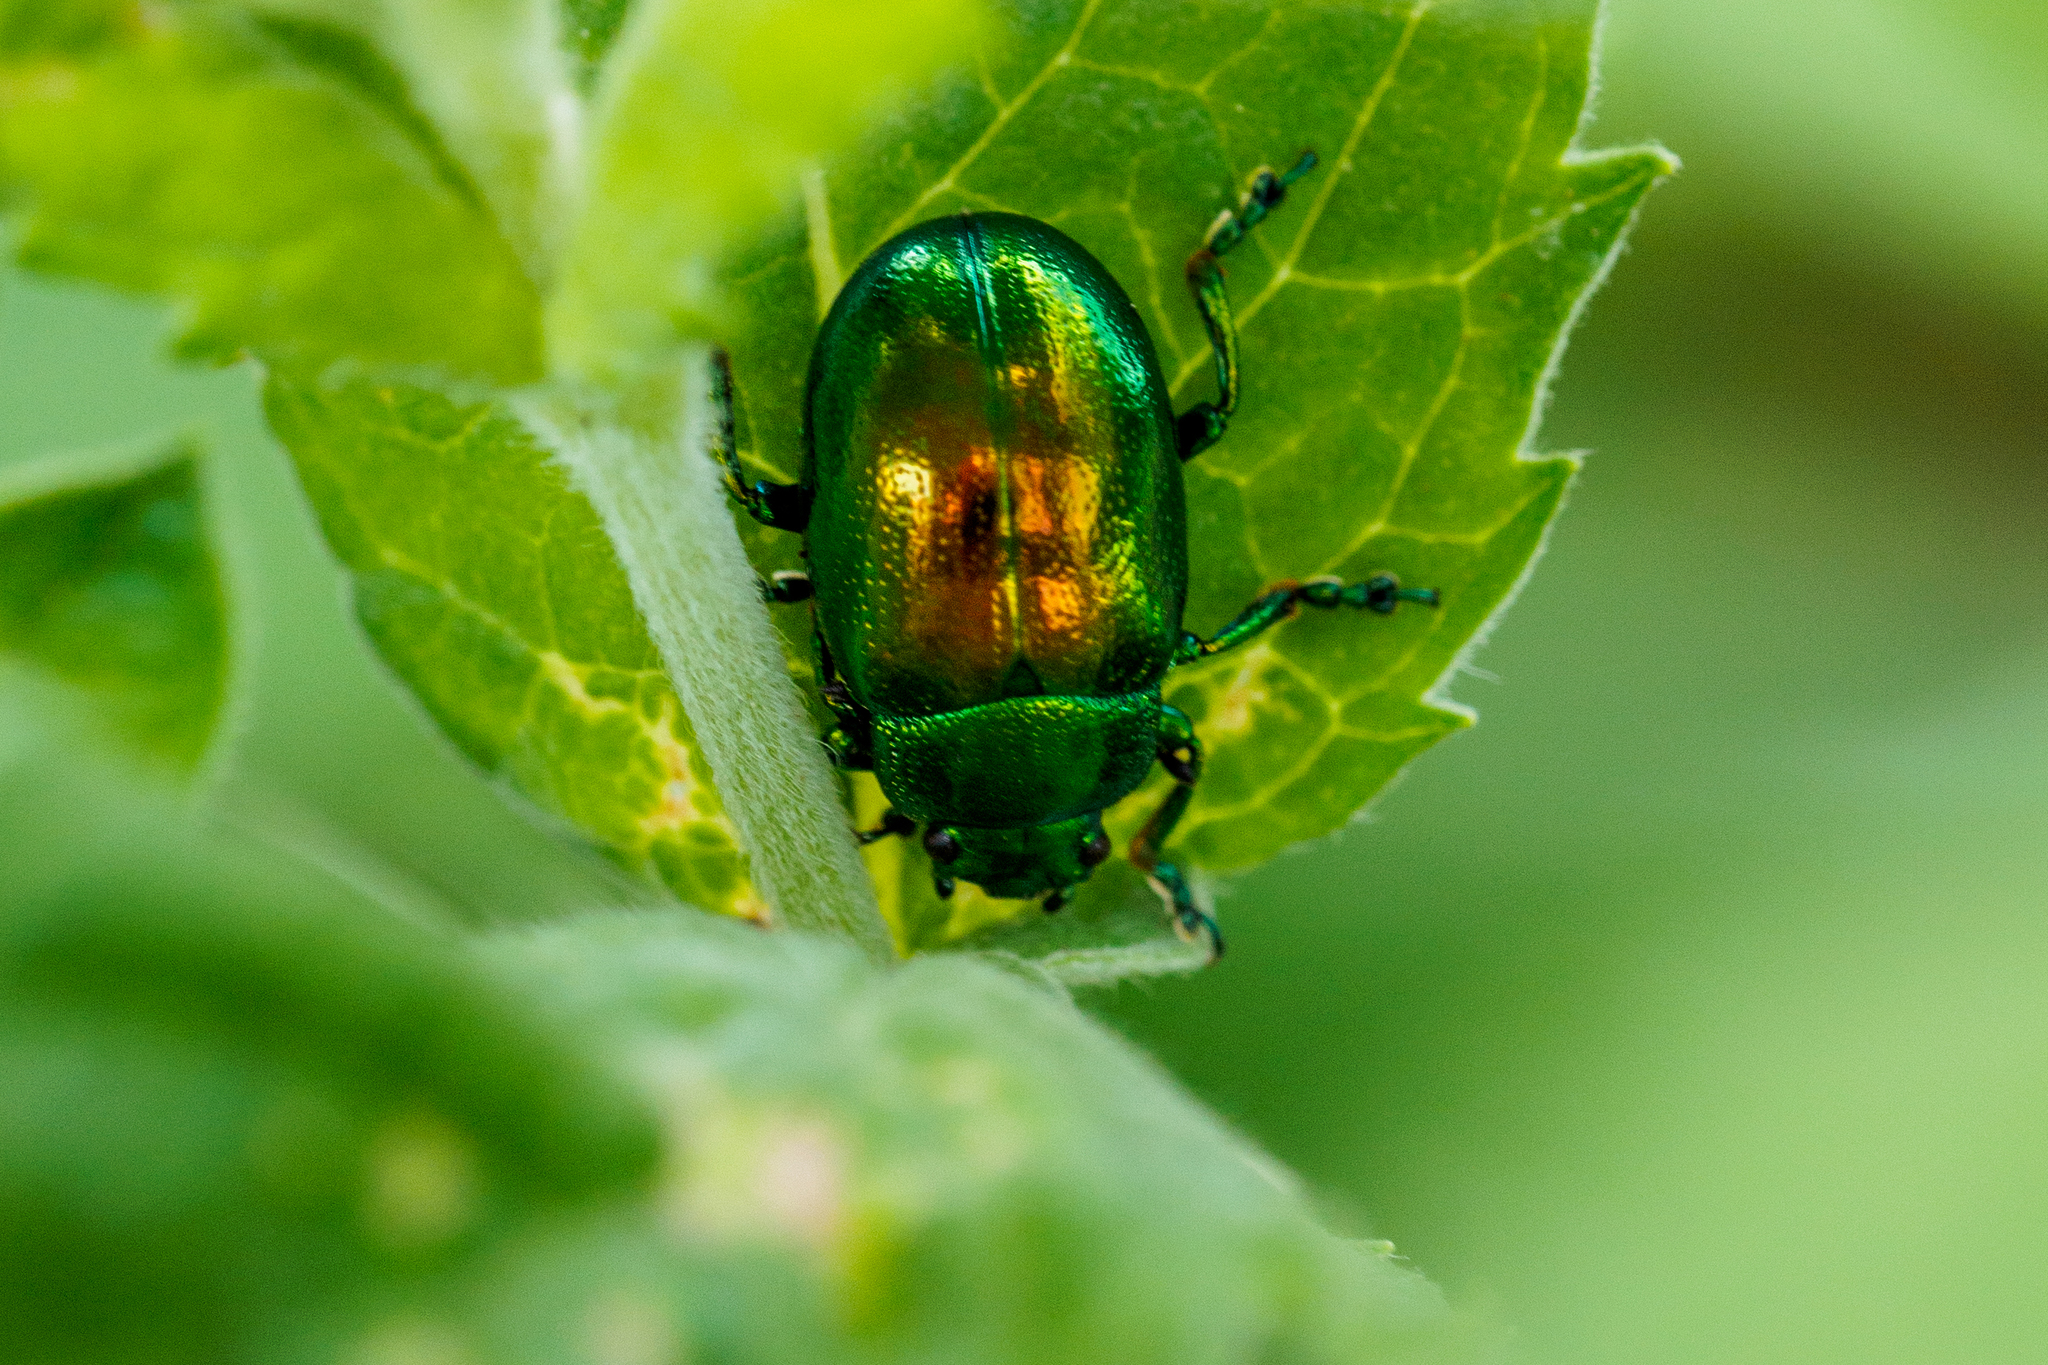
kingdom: Animalia
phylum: Arthropoda
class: Insecta
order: Coleoptera
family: Chrysomelidae
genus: Chrysolina
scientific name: Chrysolina graminis
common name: Tansey beetle
